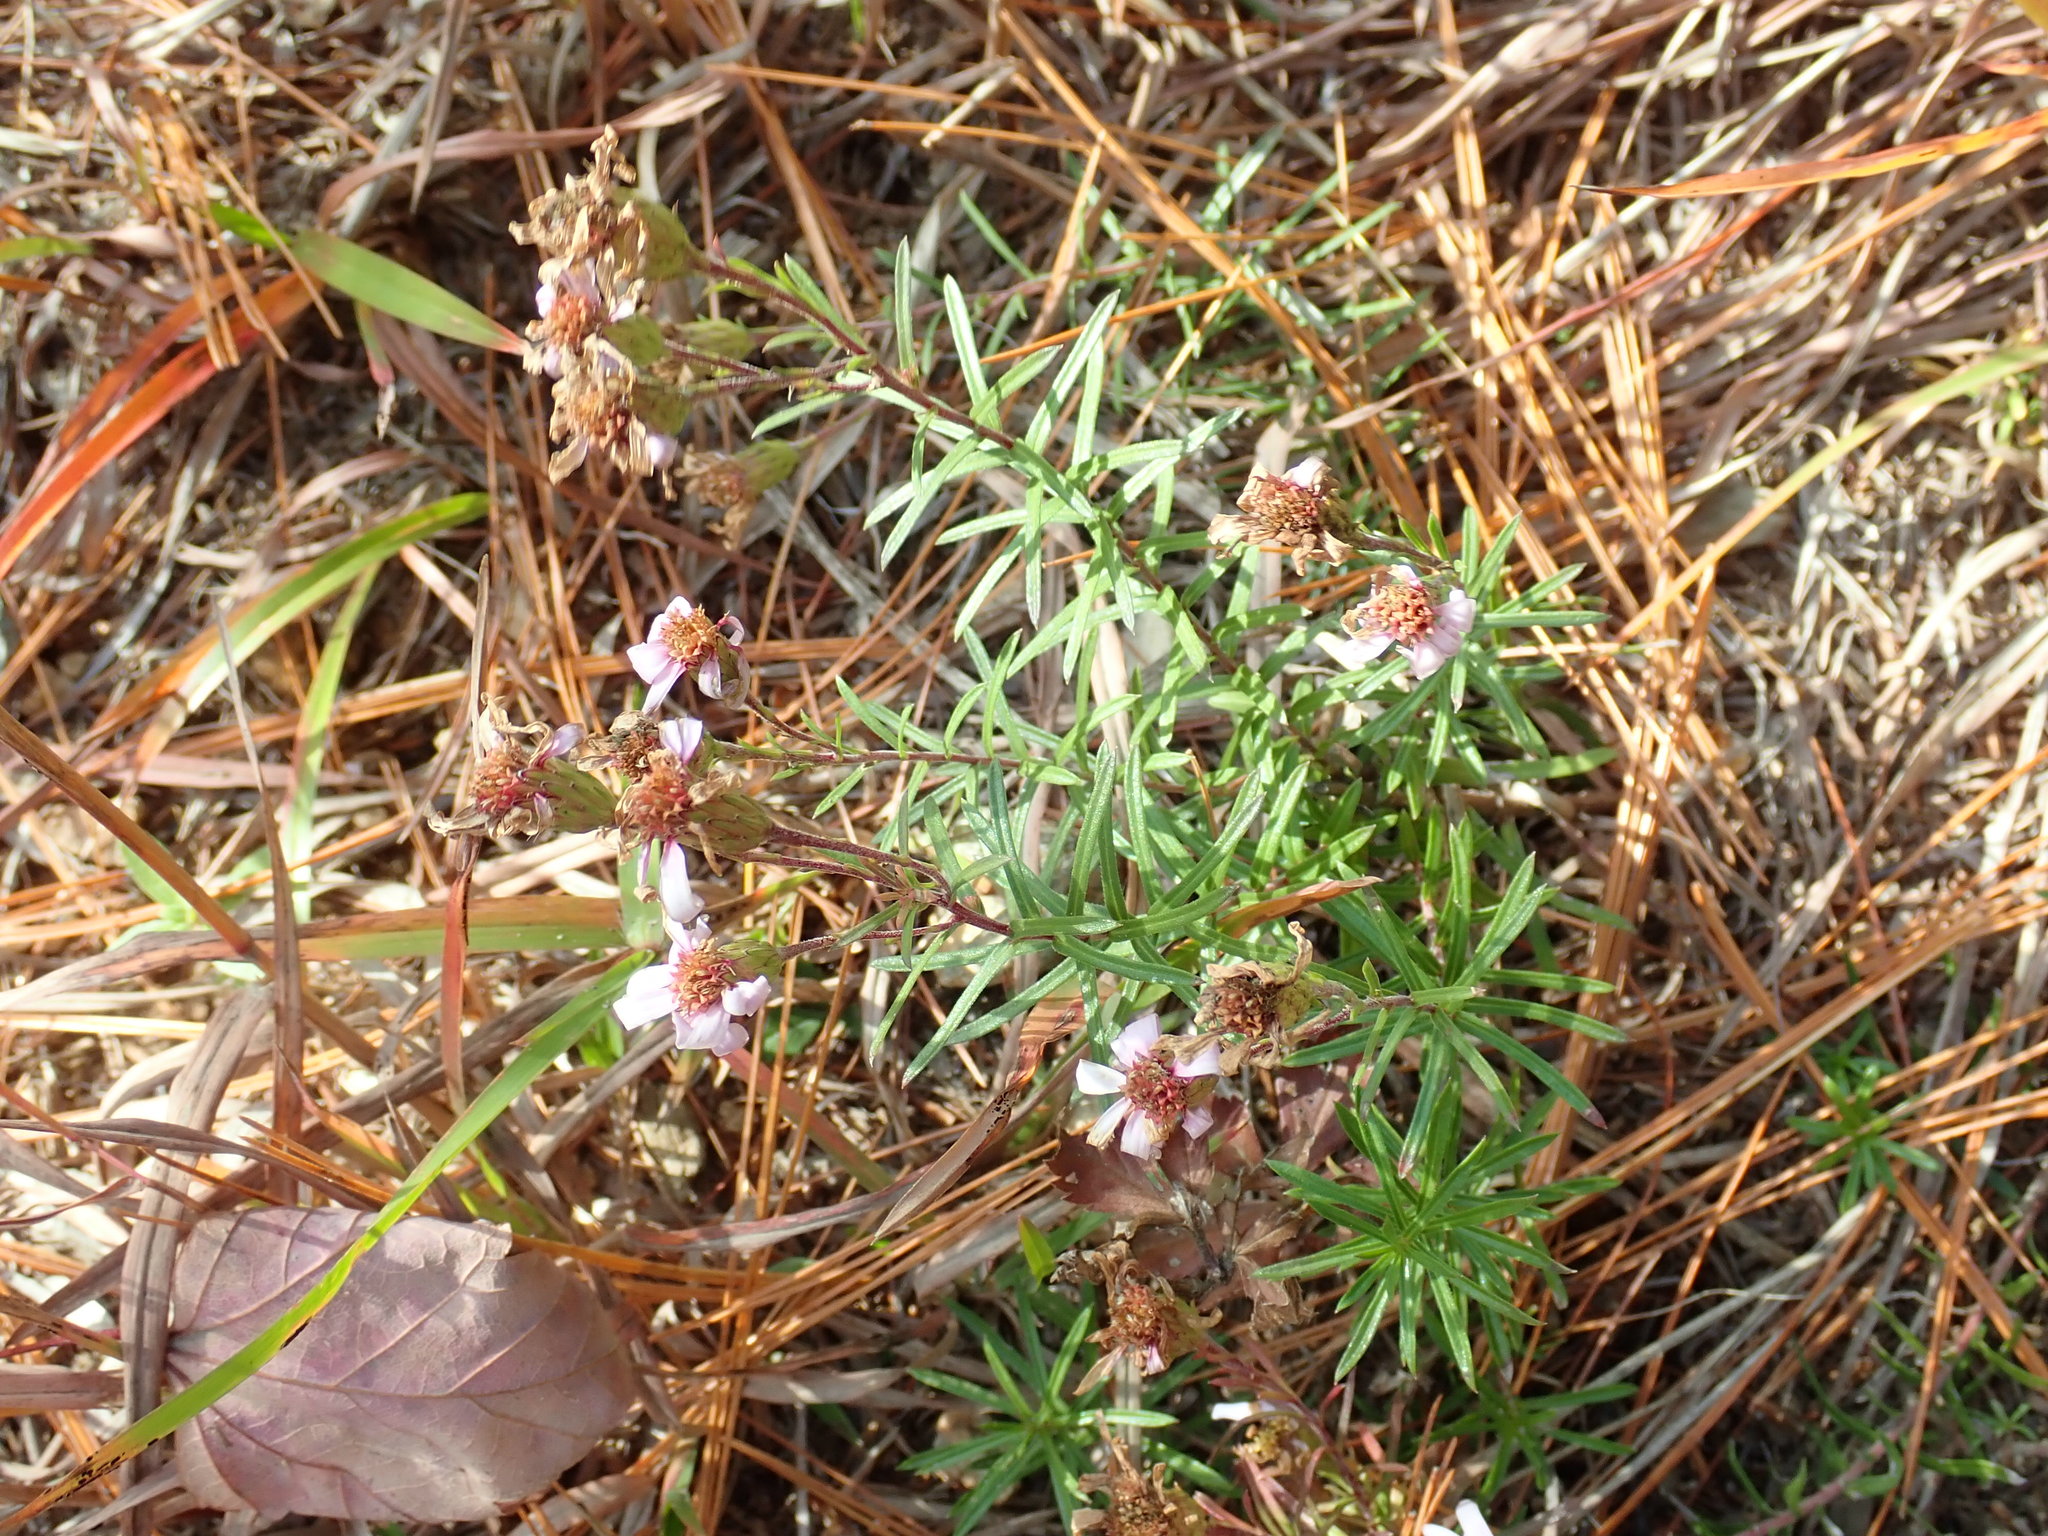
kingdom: Plantae
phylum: Tracheophyta
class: Magnoliopsida
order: Asterales
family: Asteraceae
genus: Ionactis
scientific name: Ionactis linariifolia
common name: Flax-leaf aster
